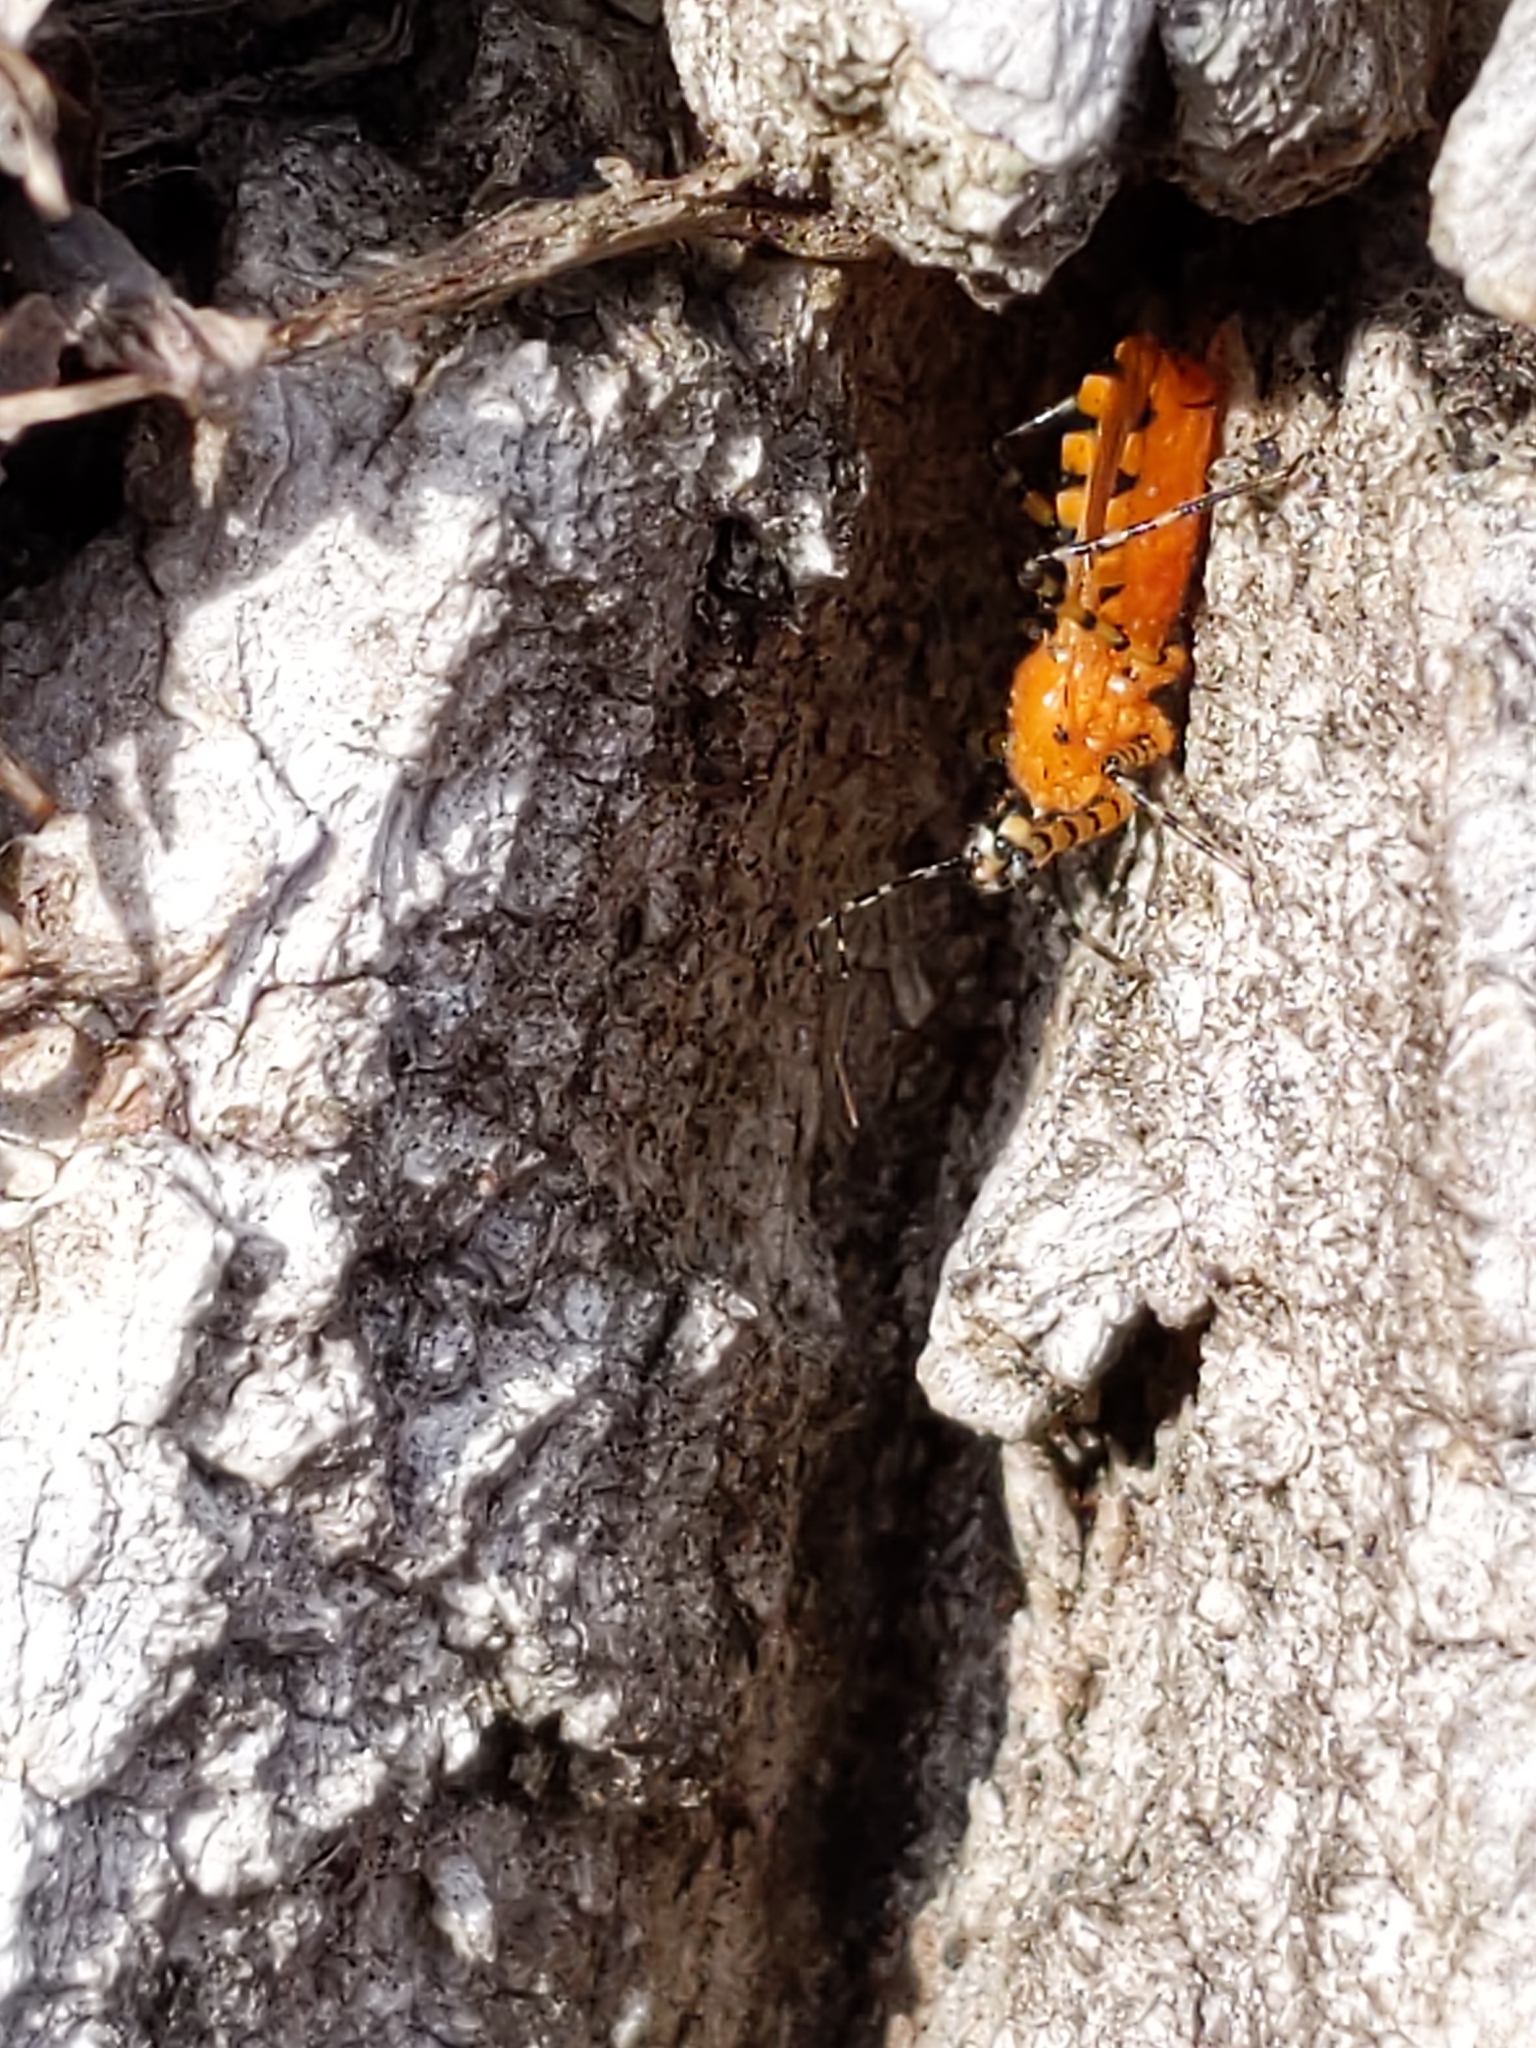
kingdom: Animalia
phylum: Arthropoda
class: Insecta
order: Hemiptera
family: Reduviidae
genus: Pselliopus
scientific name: Pselliopus barberi
